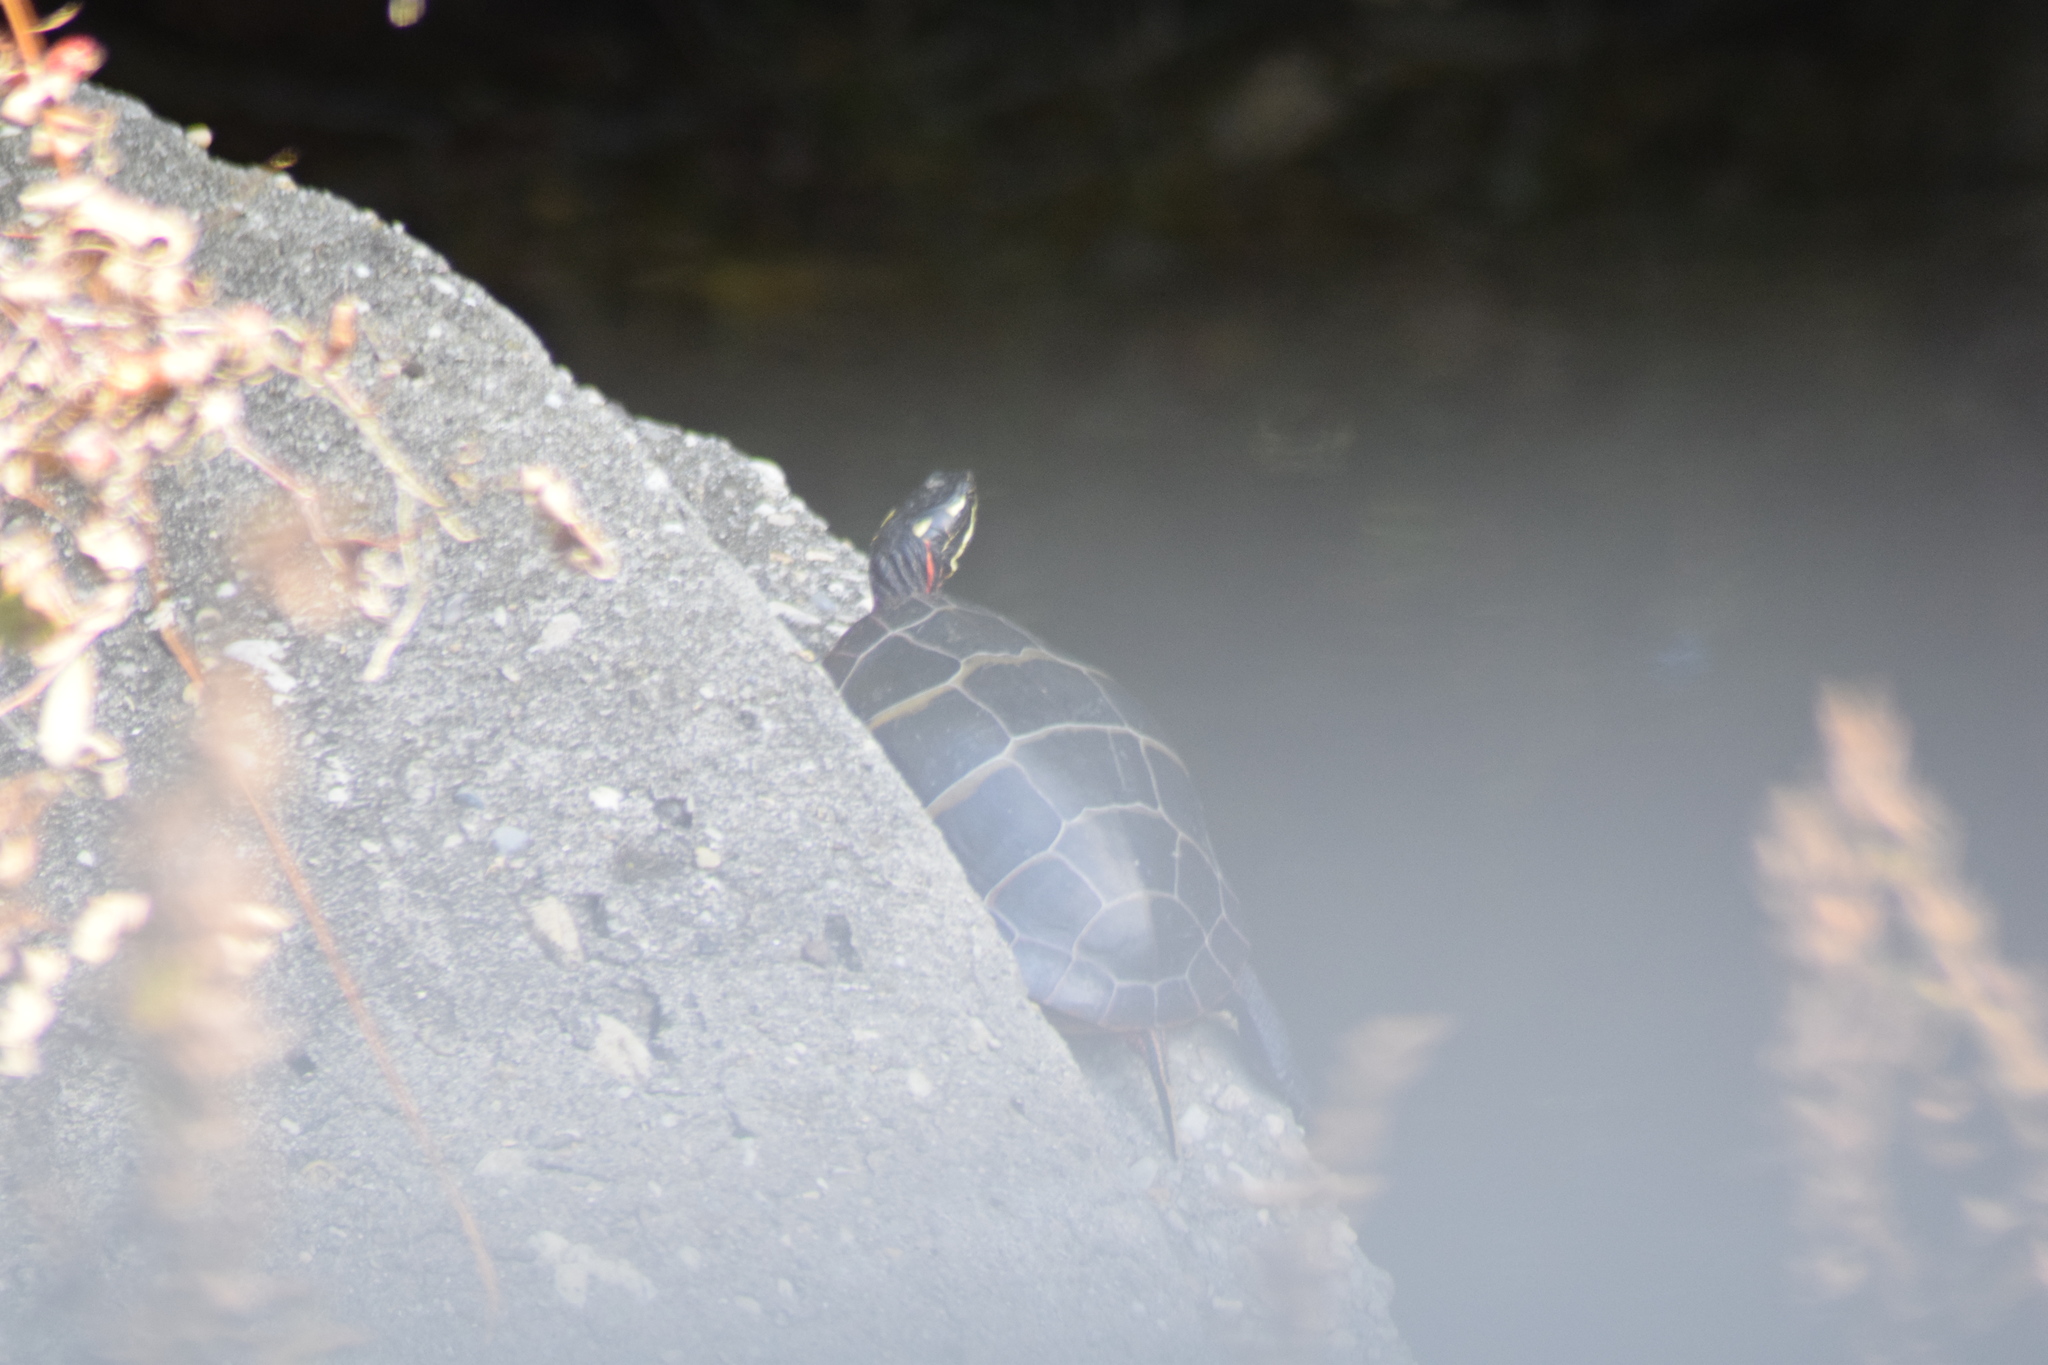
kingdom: Animalia
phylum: Chordata
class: Testudines
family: Emydidae
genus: Chrysemys
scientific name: Chrysemys picta
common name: Painted turtle
